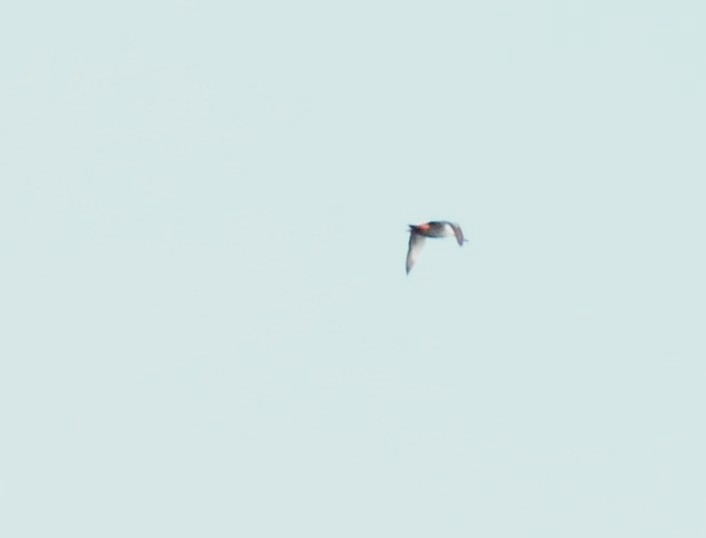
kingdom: Animalia
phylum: Chordata
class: Aves
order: Anseriformes
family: Anatidae
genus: Anas
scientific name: Anas poecilorhyncha
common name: Indian spot-billed duck
